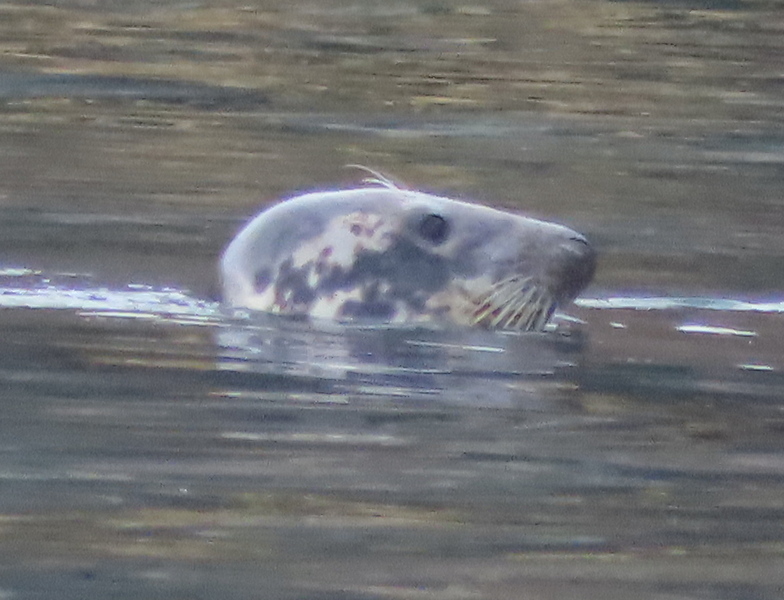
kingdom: Animalia
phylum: Chordata
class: Mammalia
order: Carnivora
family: Phocidae
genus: Halichoerus
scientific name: Halichoerus grypus
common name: Grey seal
